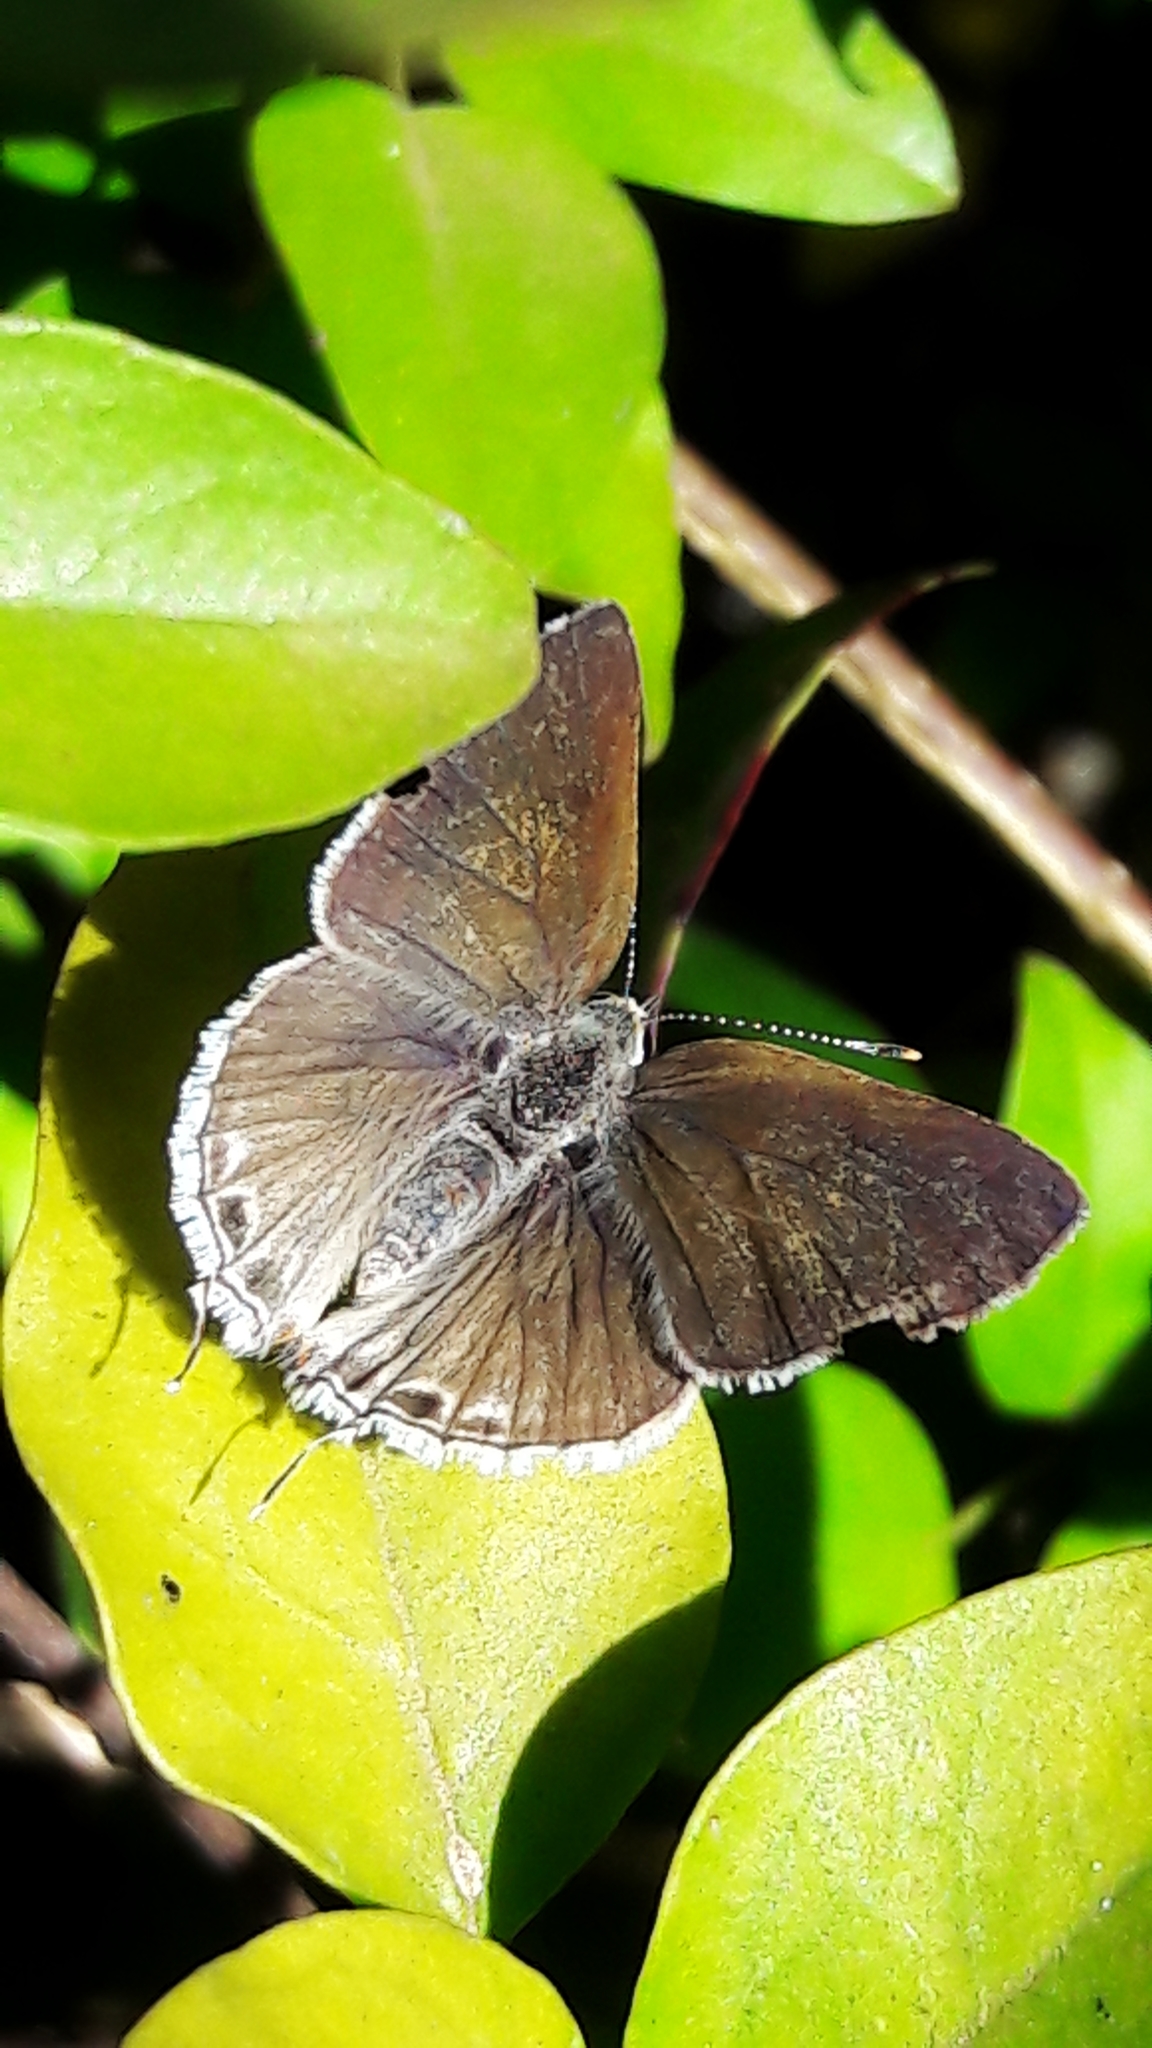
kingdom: Animalia
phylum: Arthropoda
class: Insecta
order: Lepidoptera
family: Lycaenidae
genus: Strymon
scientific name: Strymon mulucha
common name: Mottled scrub-hairstreak
